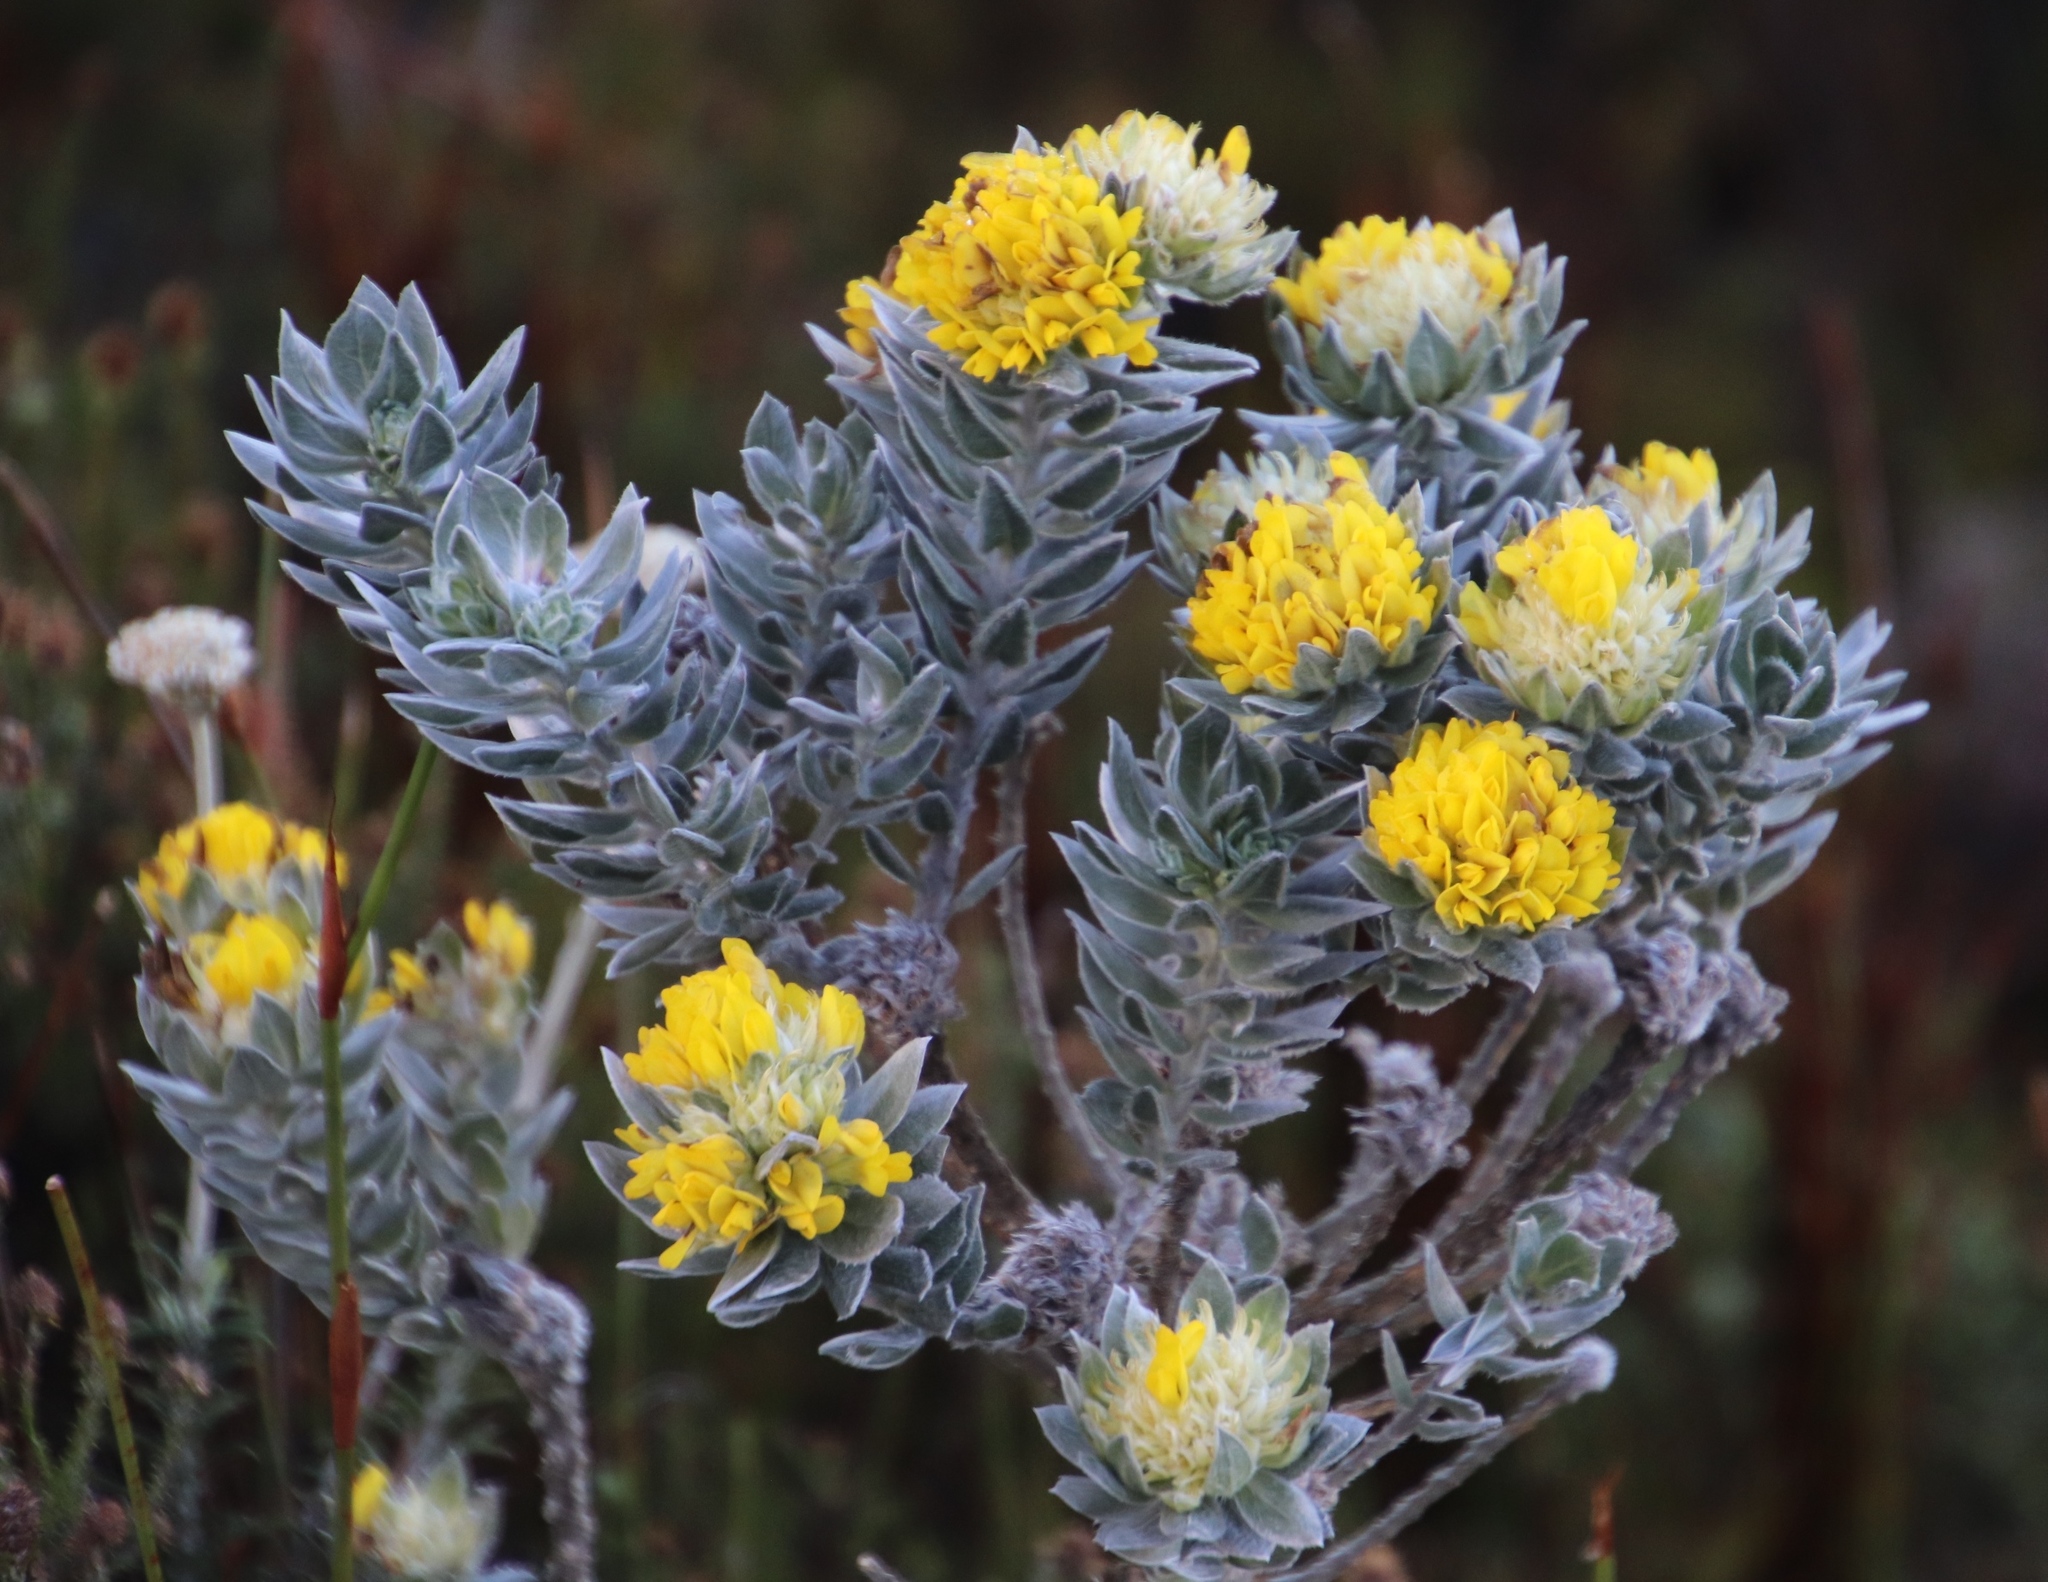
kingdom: Plantae
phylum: Tracheophyta
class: Magnoliopsida
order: Fabales
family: Fabaceae
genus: Xiphotheca
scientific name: Xiphotheca fruticosa
